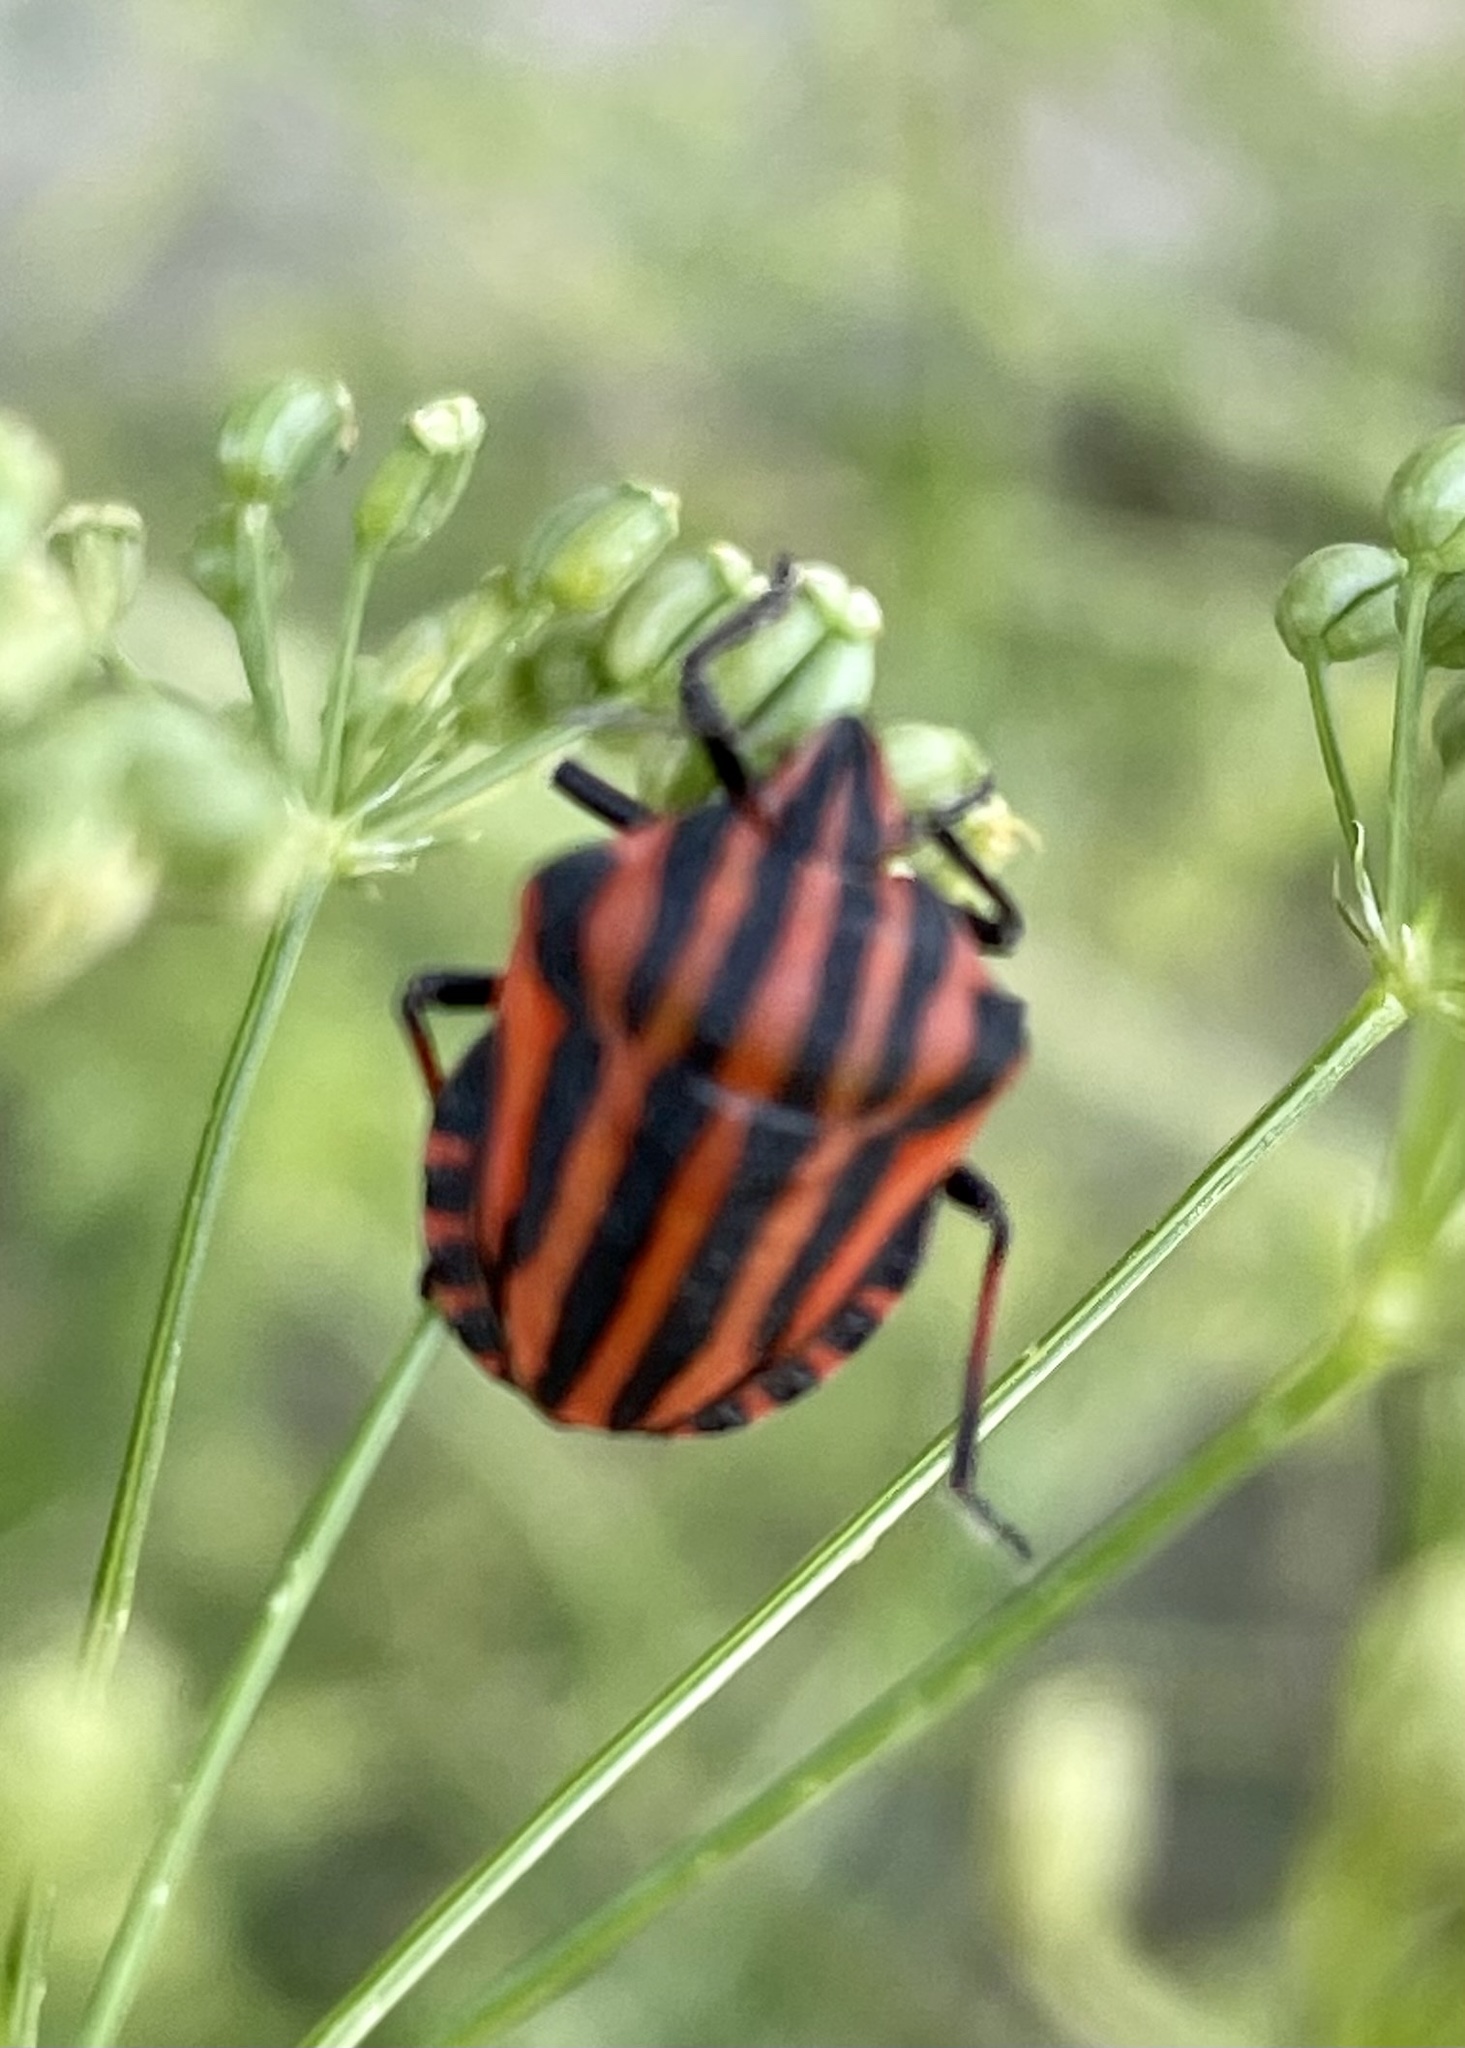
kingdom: Animalia
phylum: Arthropoda
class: Insecta
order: Hemiptera
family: Pentatomidae
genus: Graphosoma
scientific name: Graphosoma italicum
